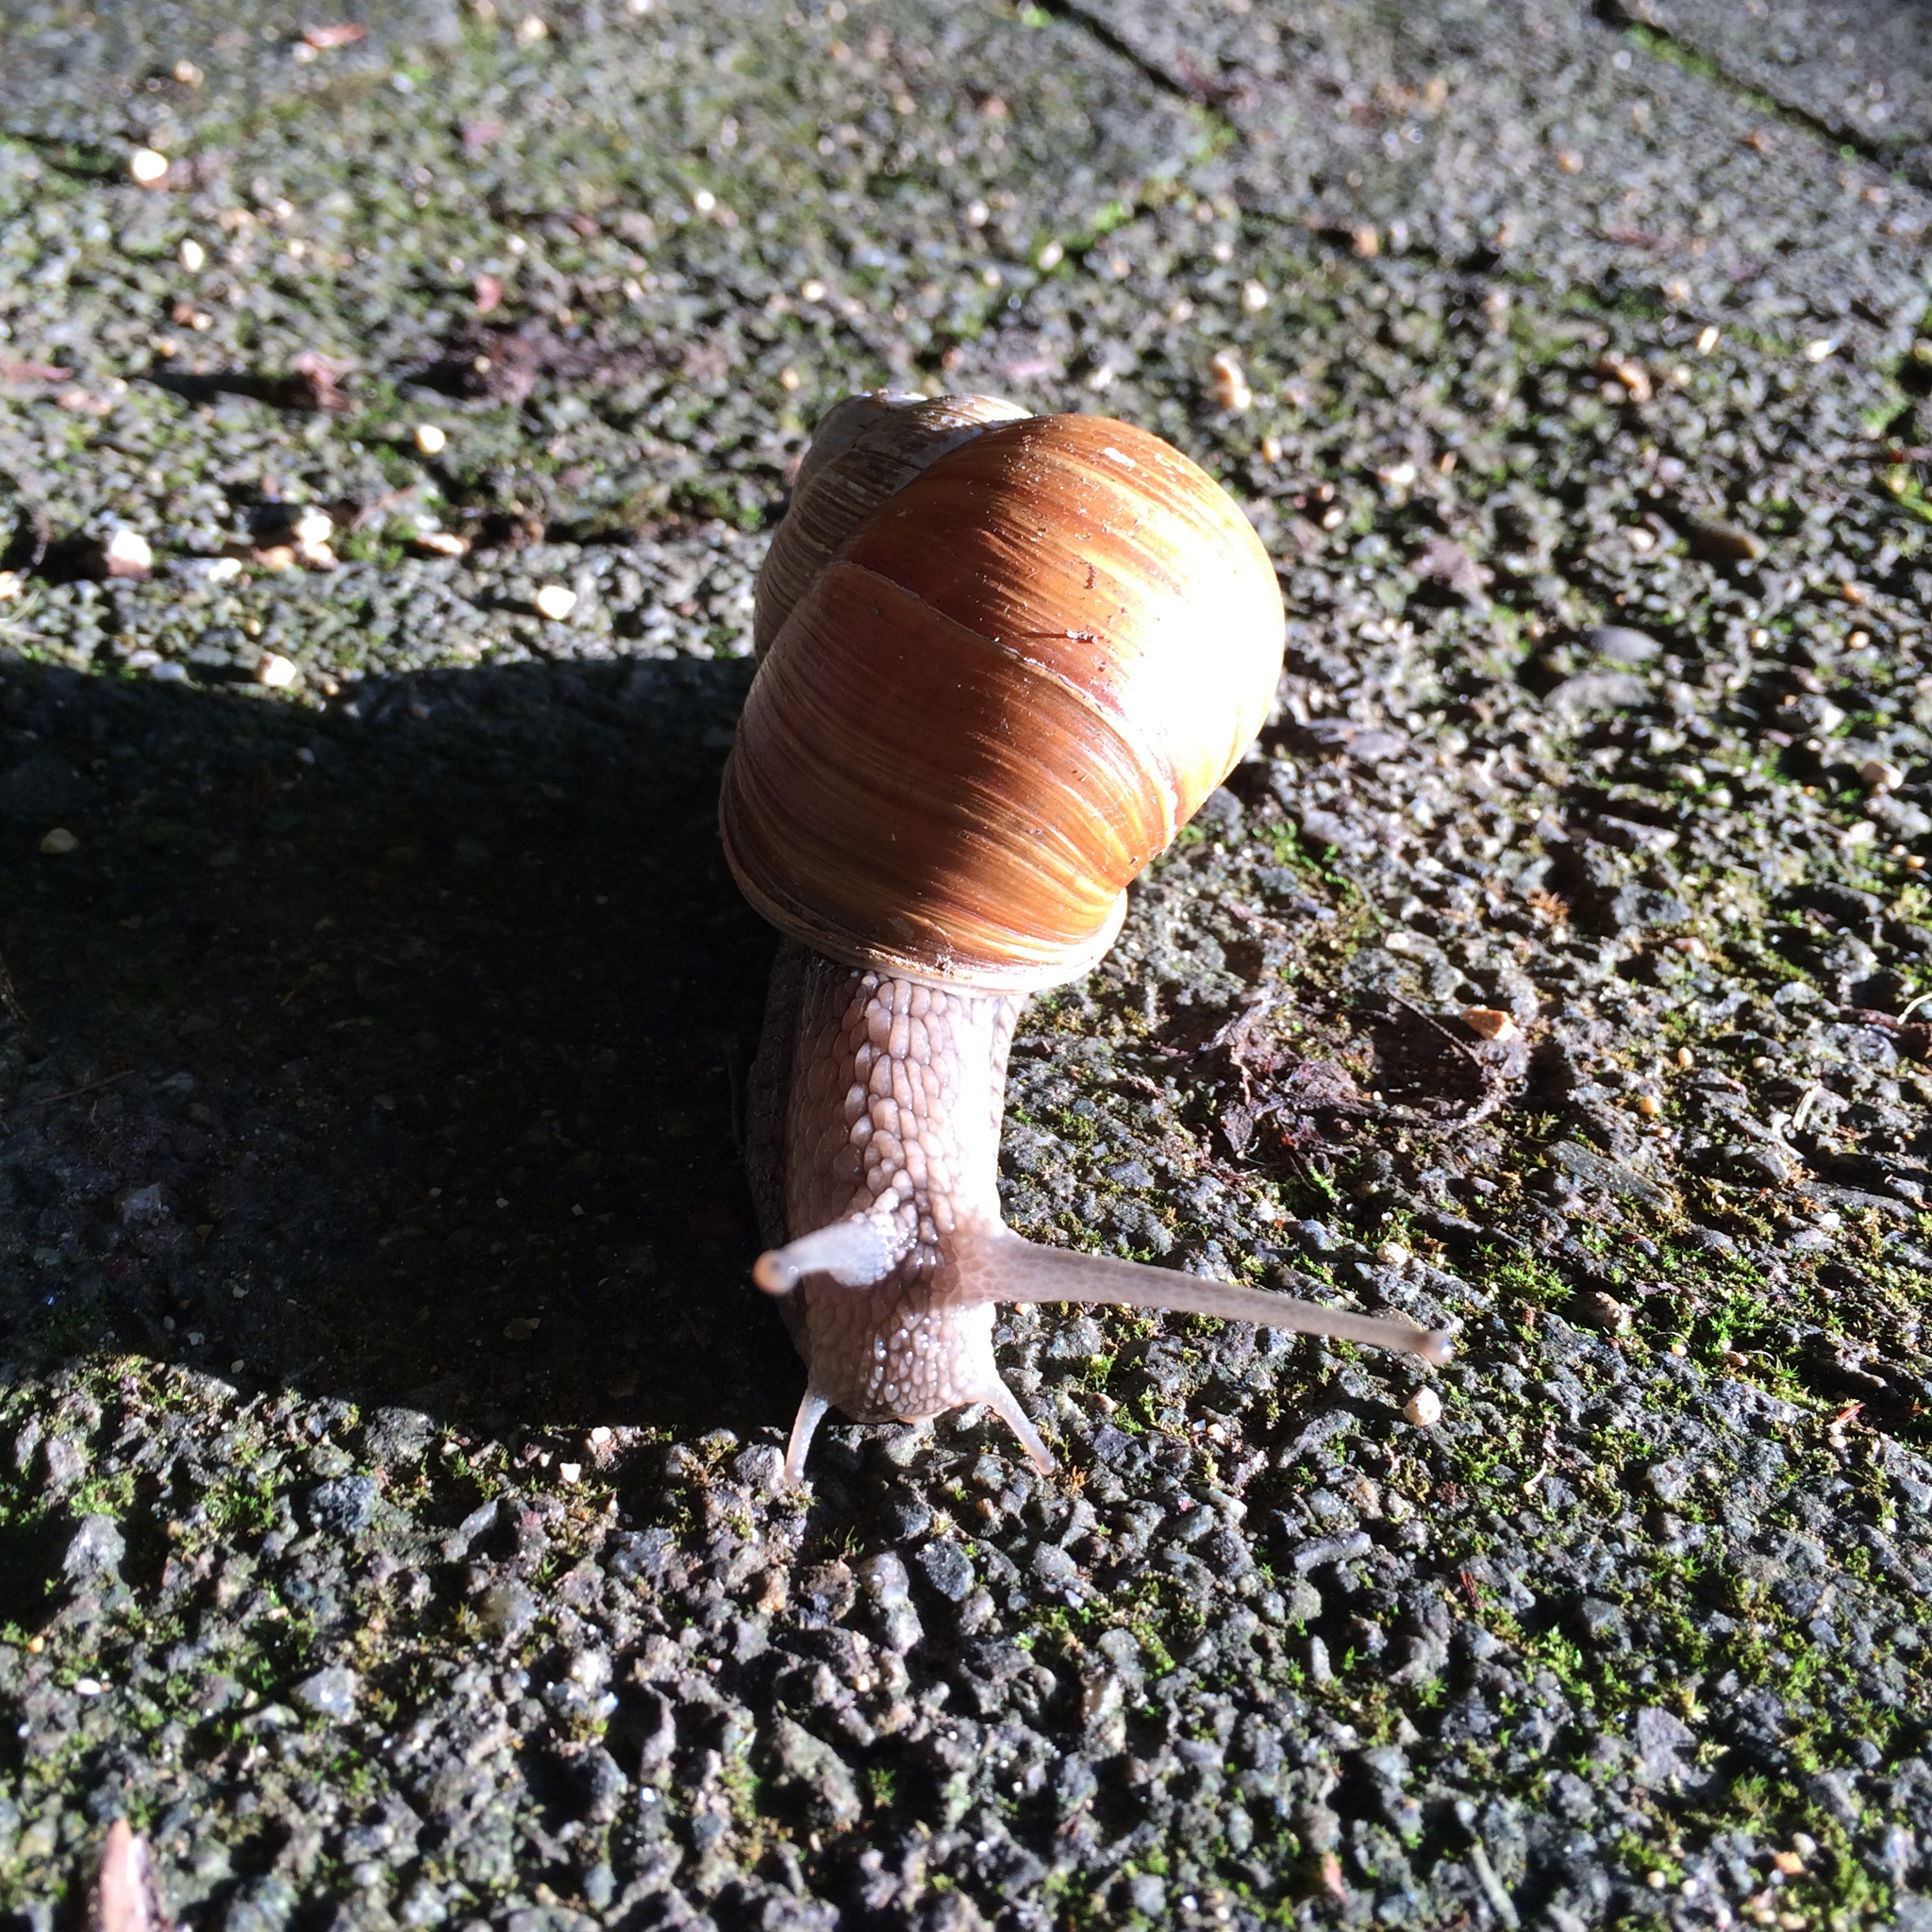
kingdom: Animalia
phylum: Mollusca
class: Gastropoda
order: Stylommatophora
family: Helicidae
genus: Helix
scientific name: Helix pomatia
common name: Roman snail
